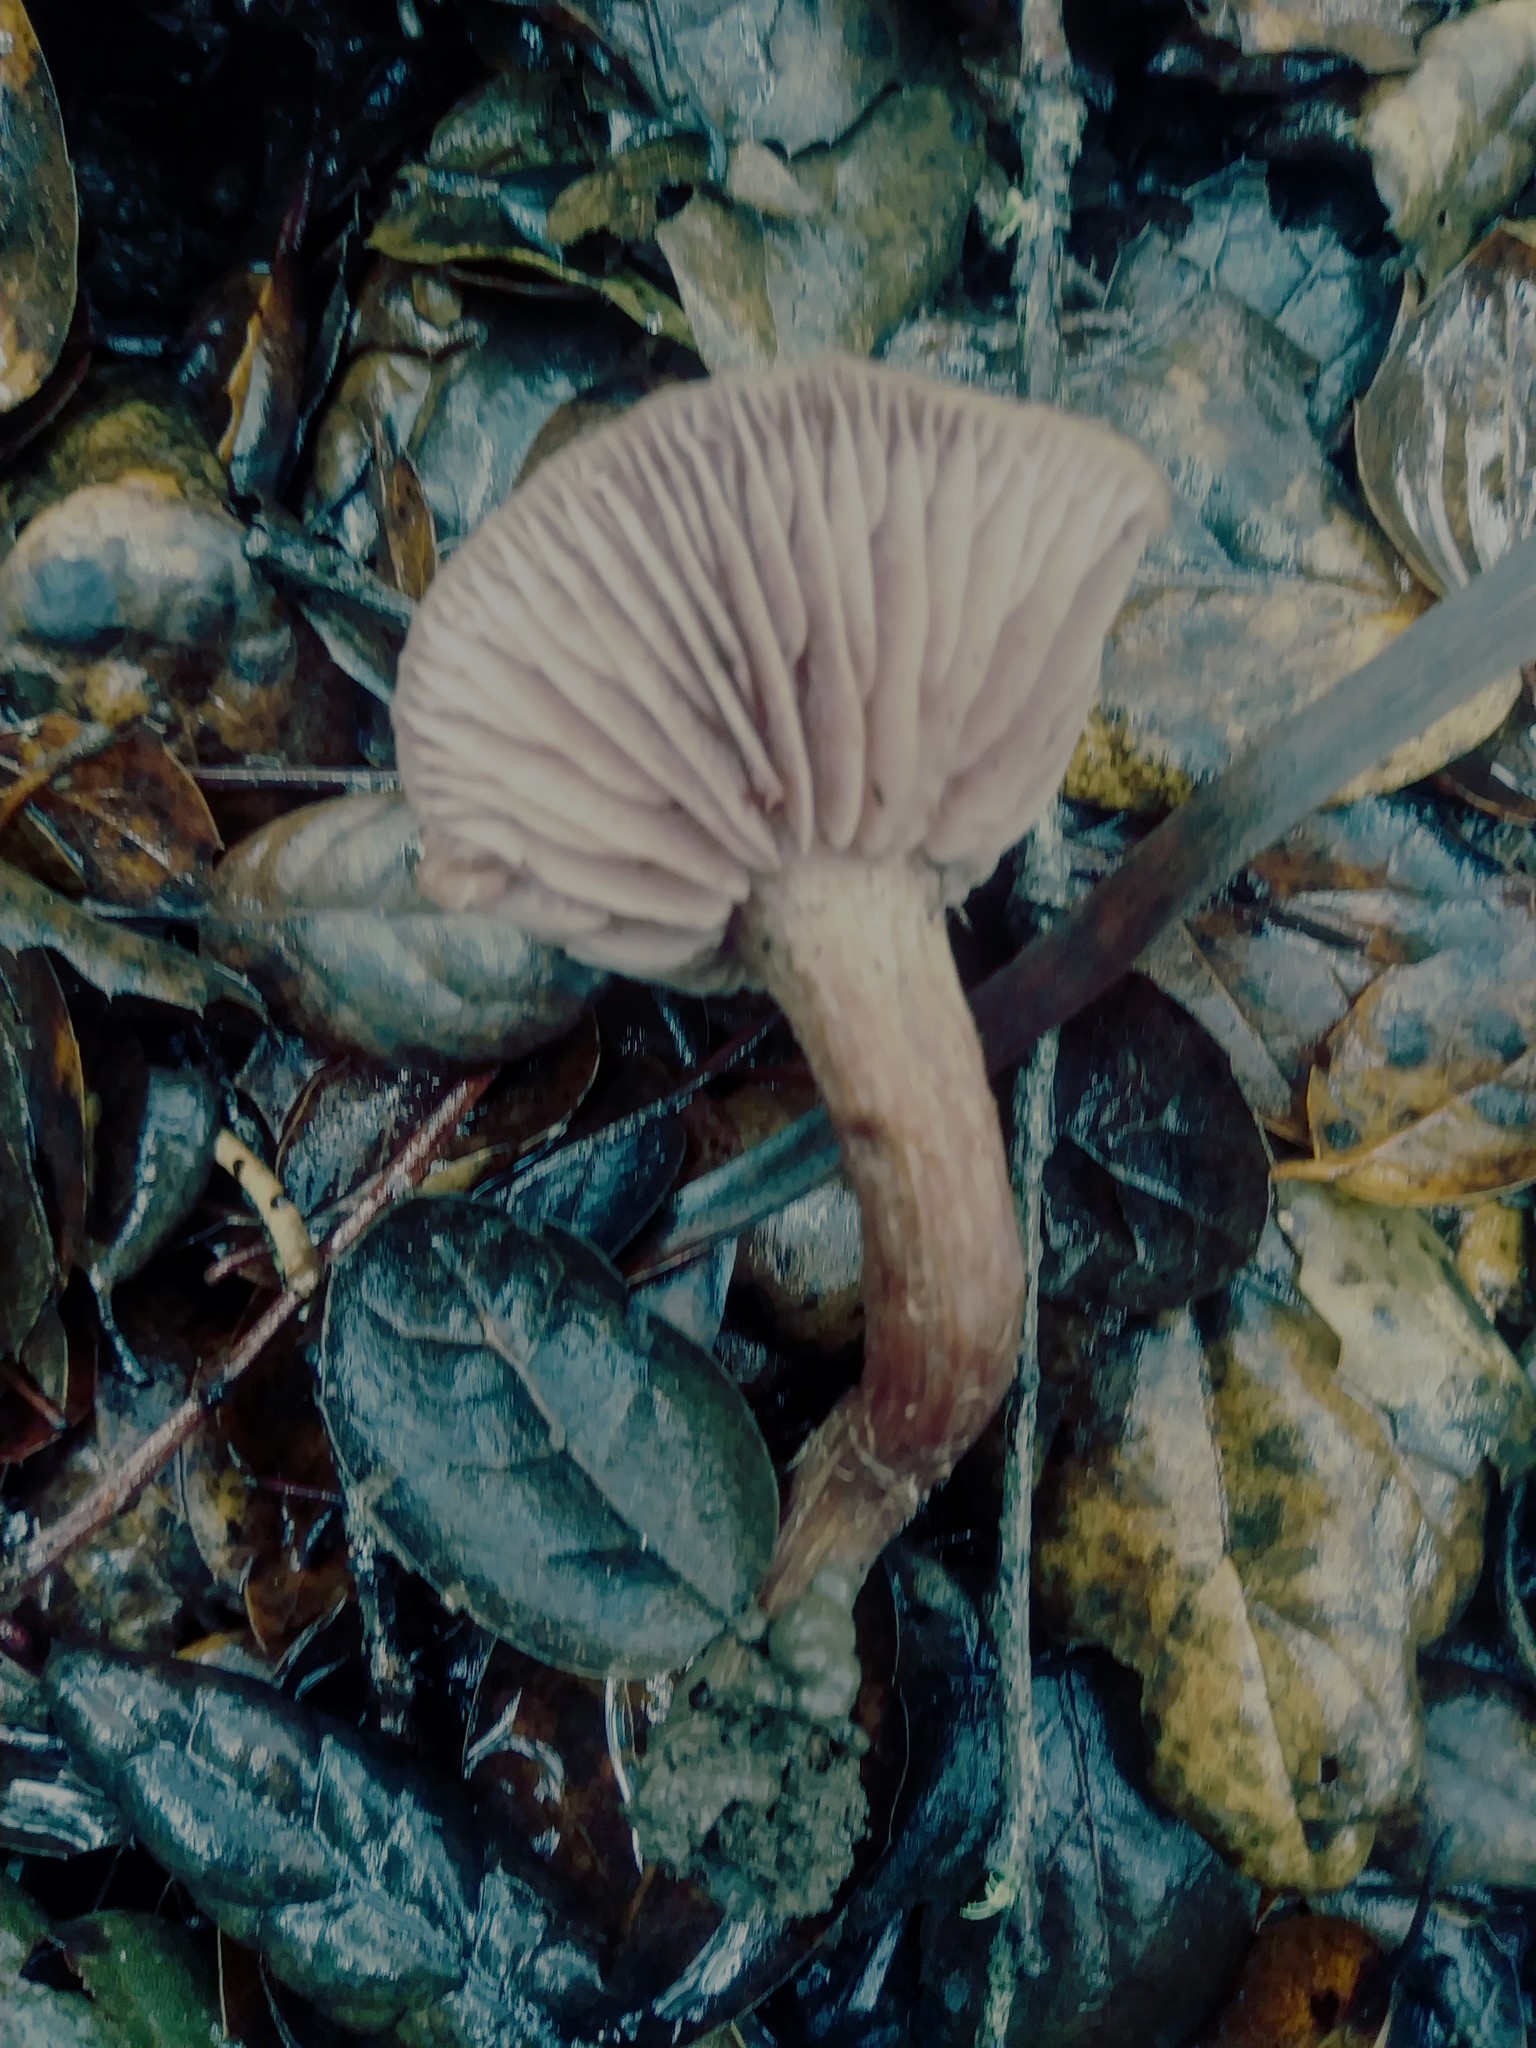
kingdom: Fungi
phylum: Basidiomycota
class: Agaricomycetes
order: Agaricales
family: Hydnangiaceae
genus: Laccaria
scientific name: Laccaria amethysteo-occidentalis
